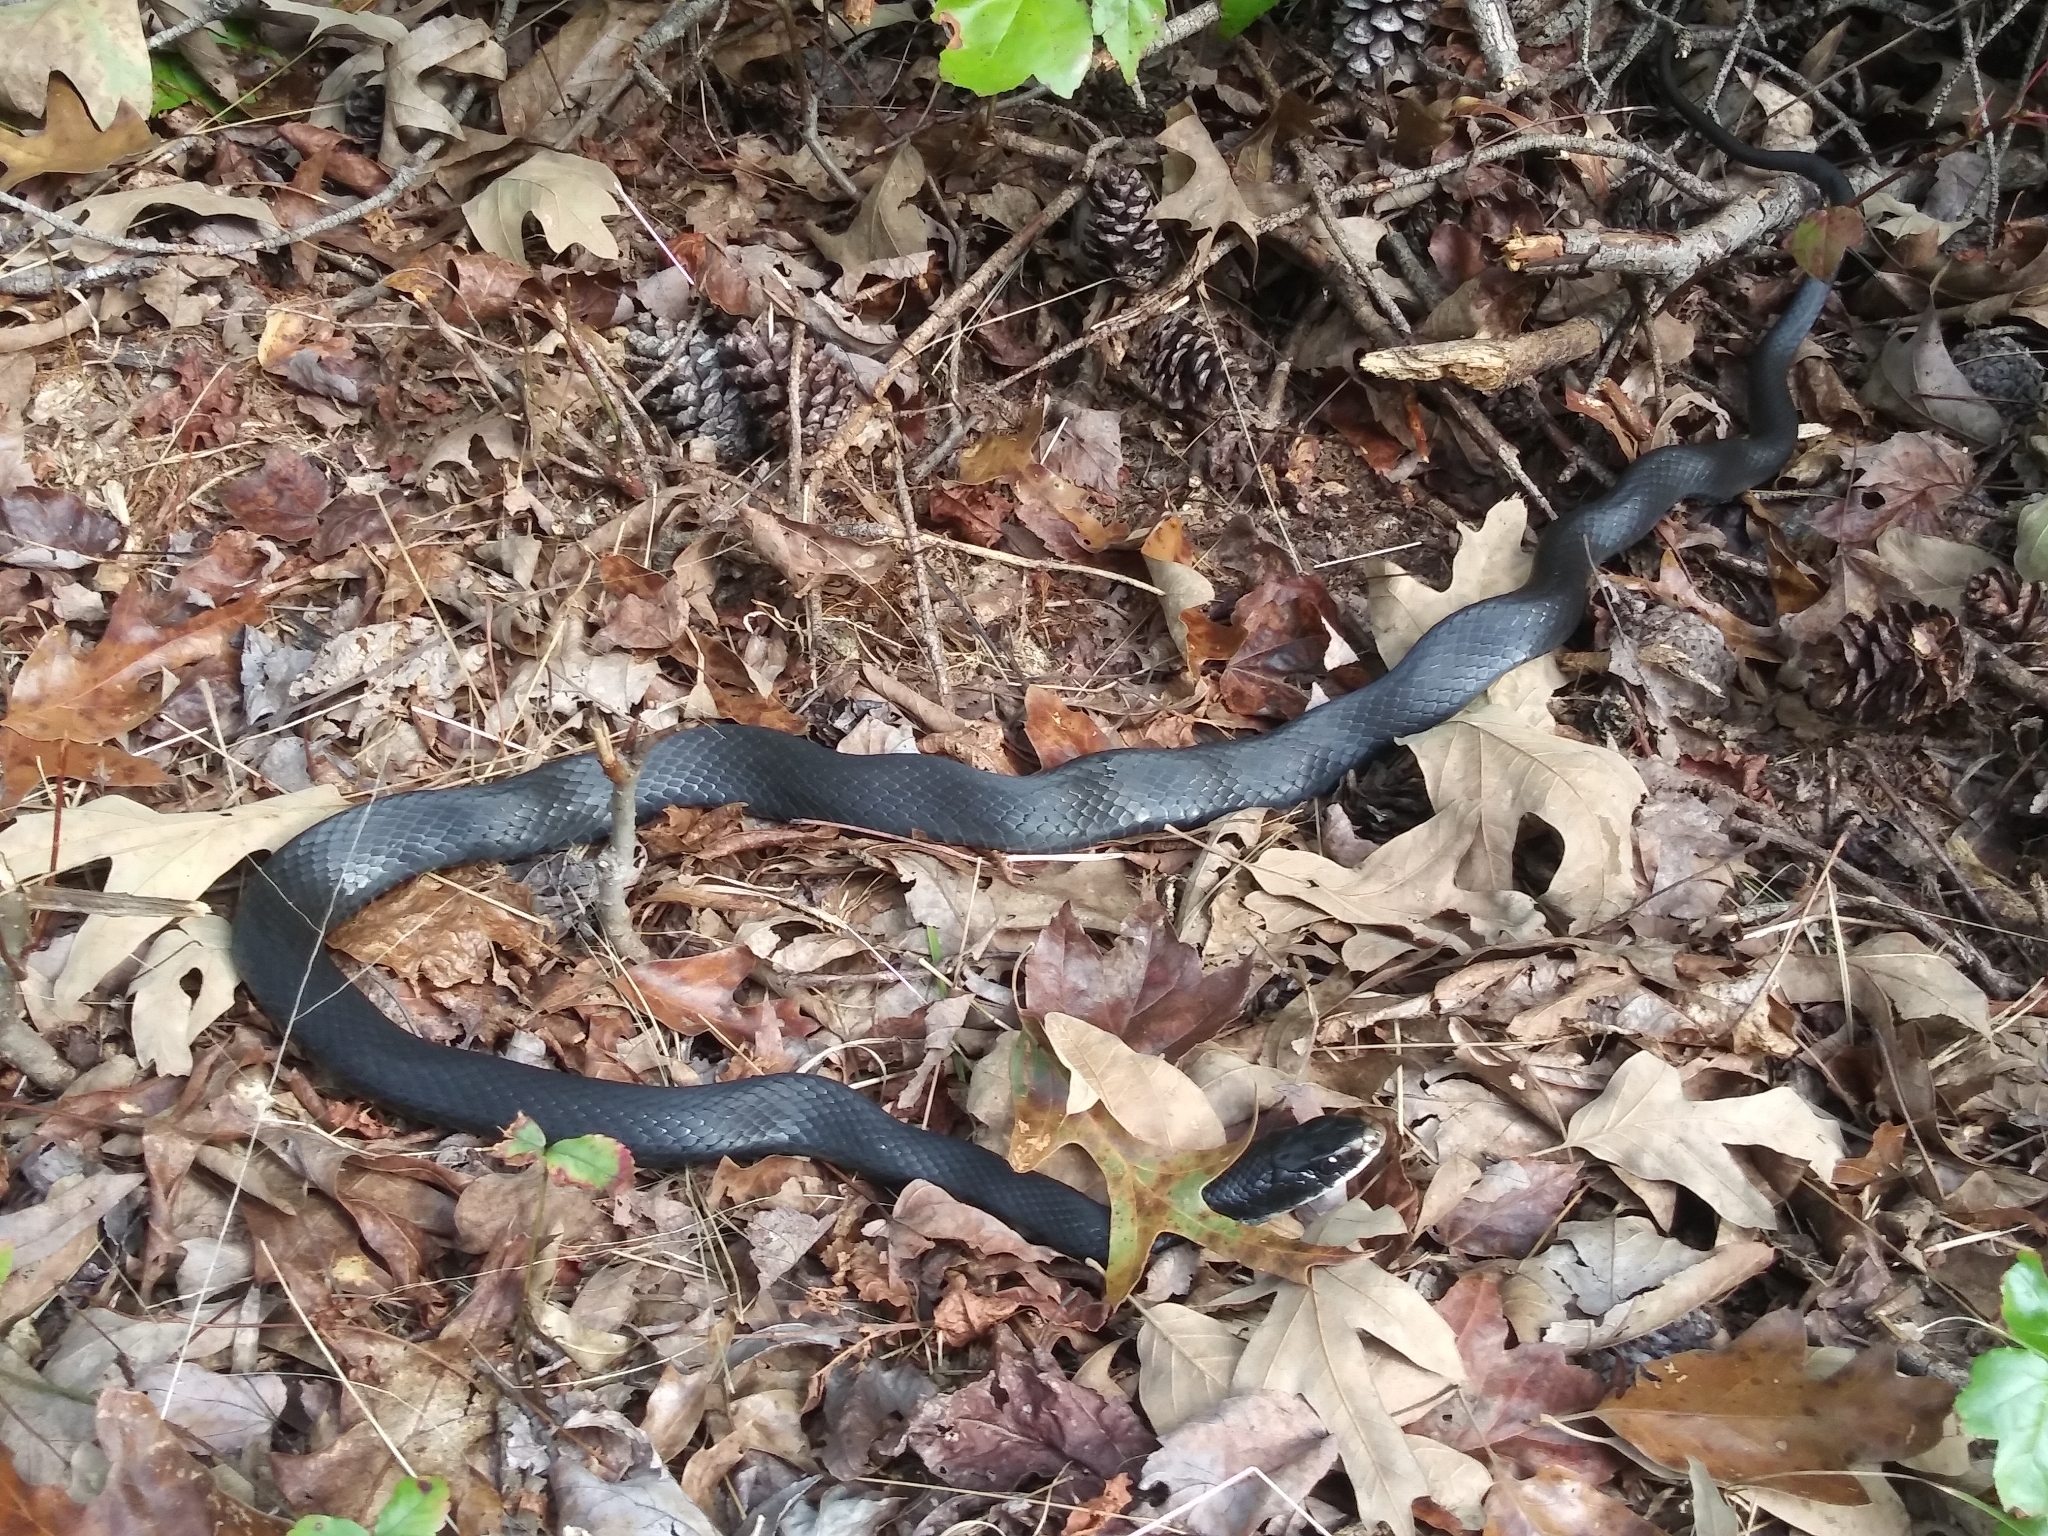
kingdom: Animalia
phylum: Chordata
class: Squamata
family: Colubridae
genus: Coluber
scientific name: Coluber constrictor
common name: Eastern racer
